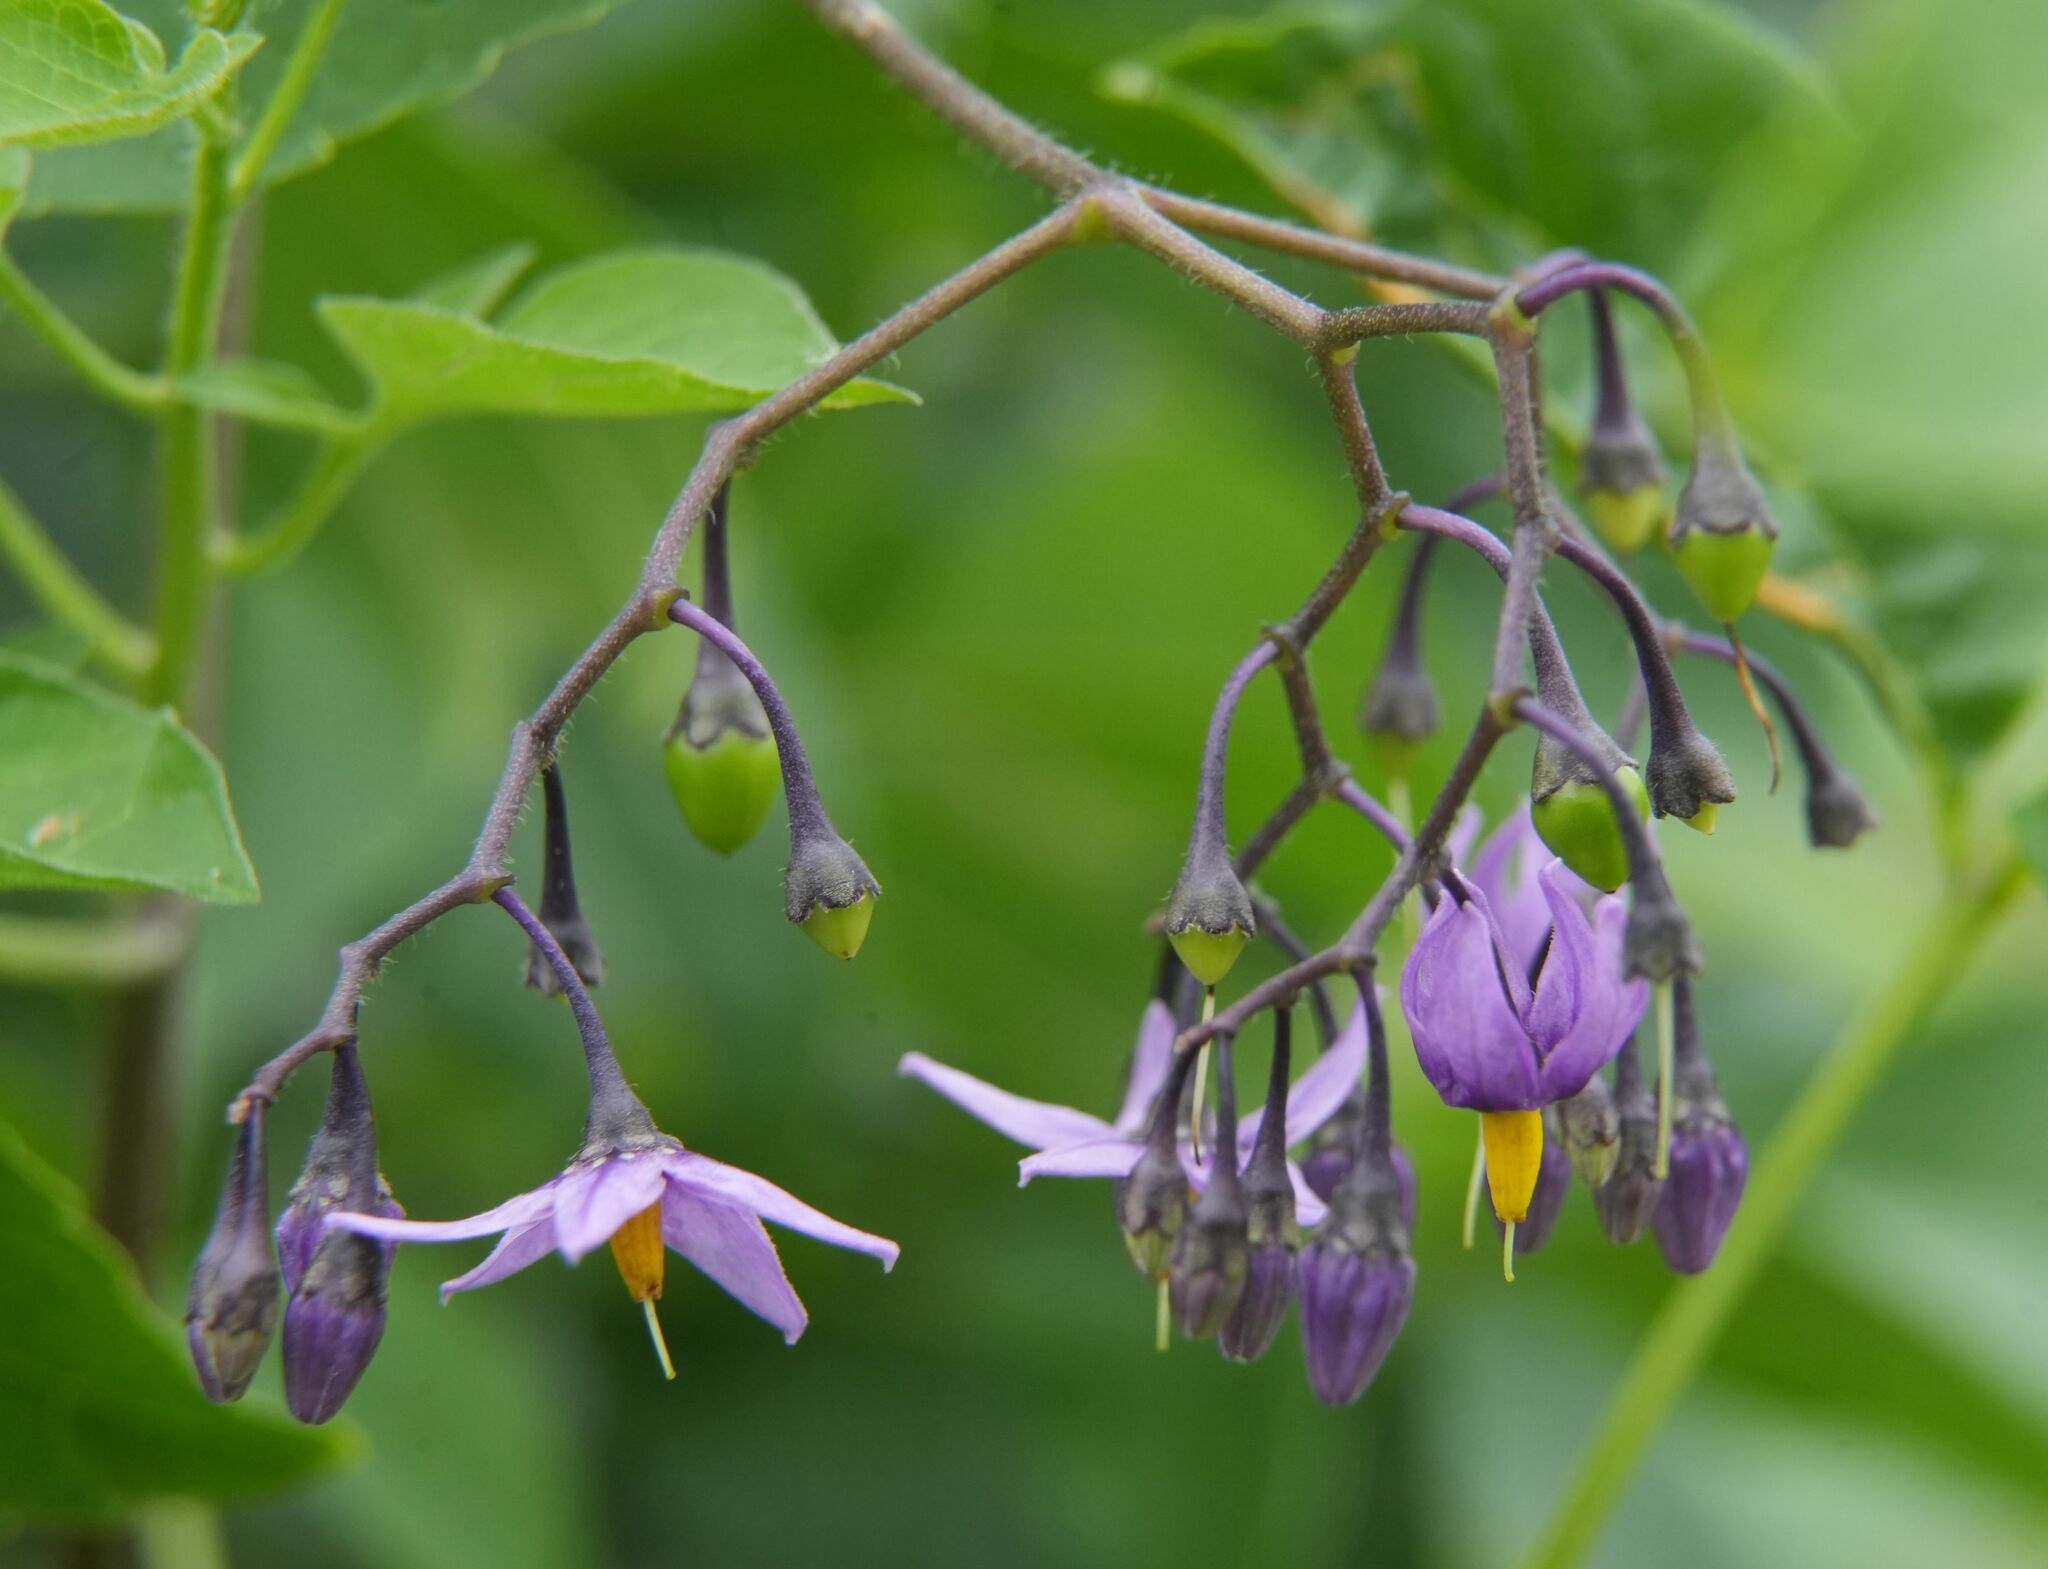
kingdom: Plantae
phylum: Tracheophyta
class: Magnoliopsida
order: Solanales
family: Solanaceae
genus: Solanum
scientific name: Solanum dulcamara
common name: Climbing nightshade
